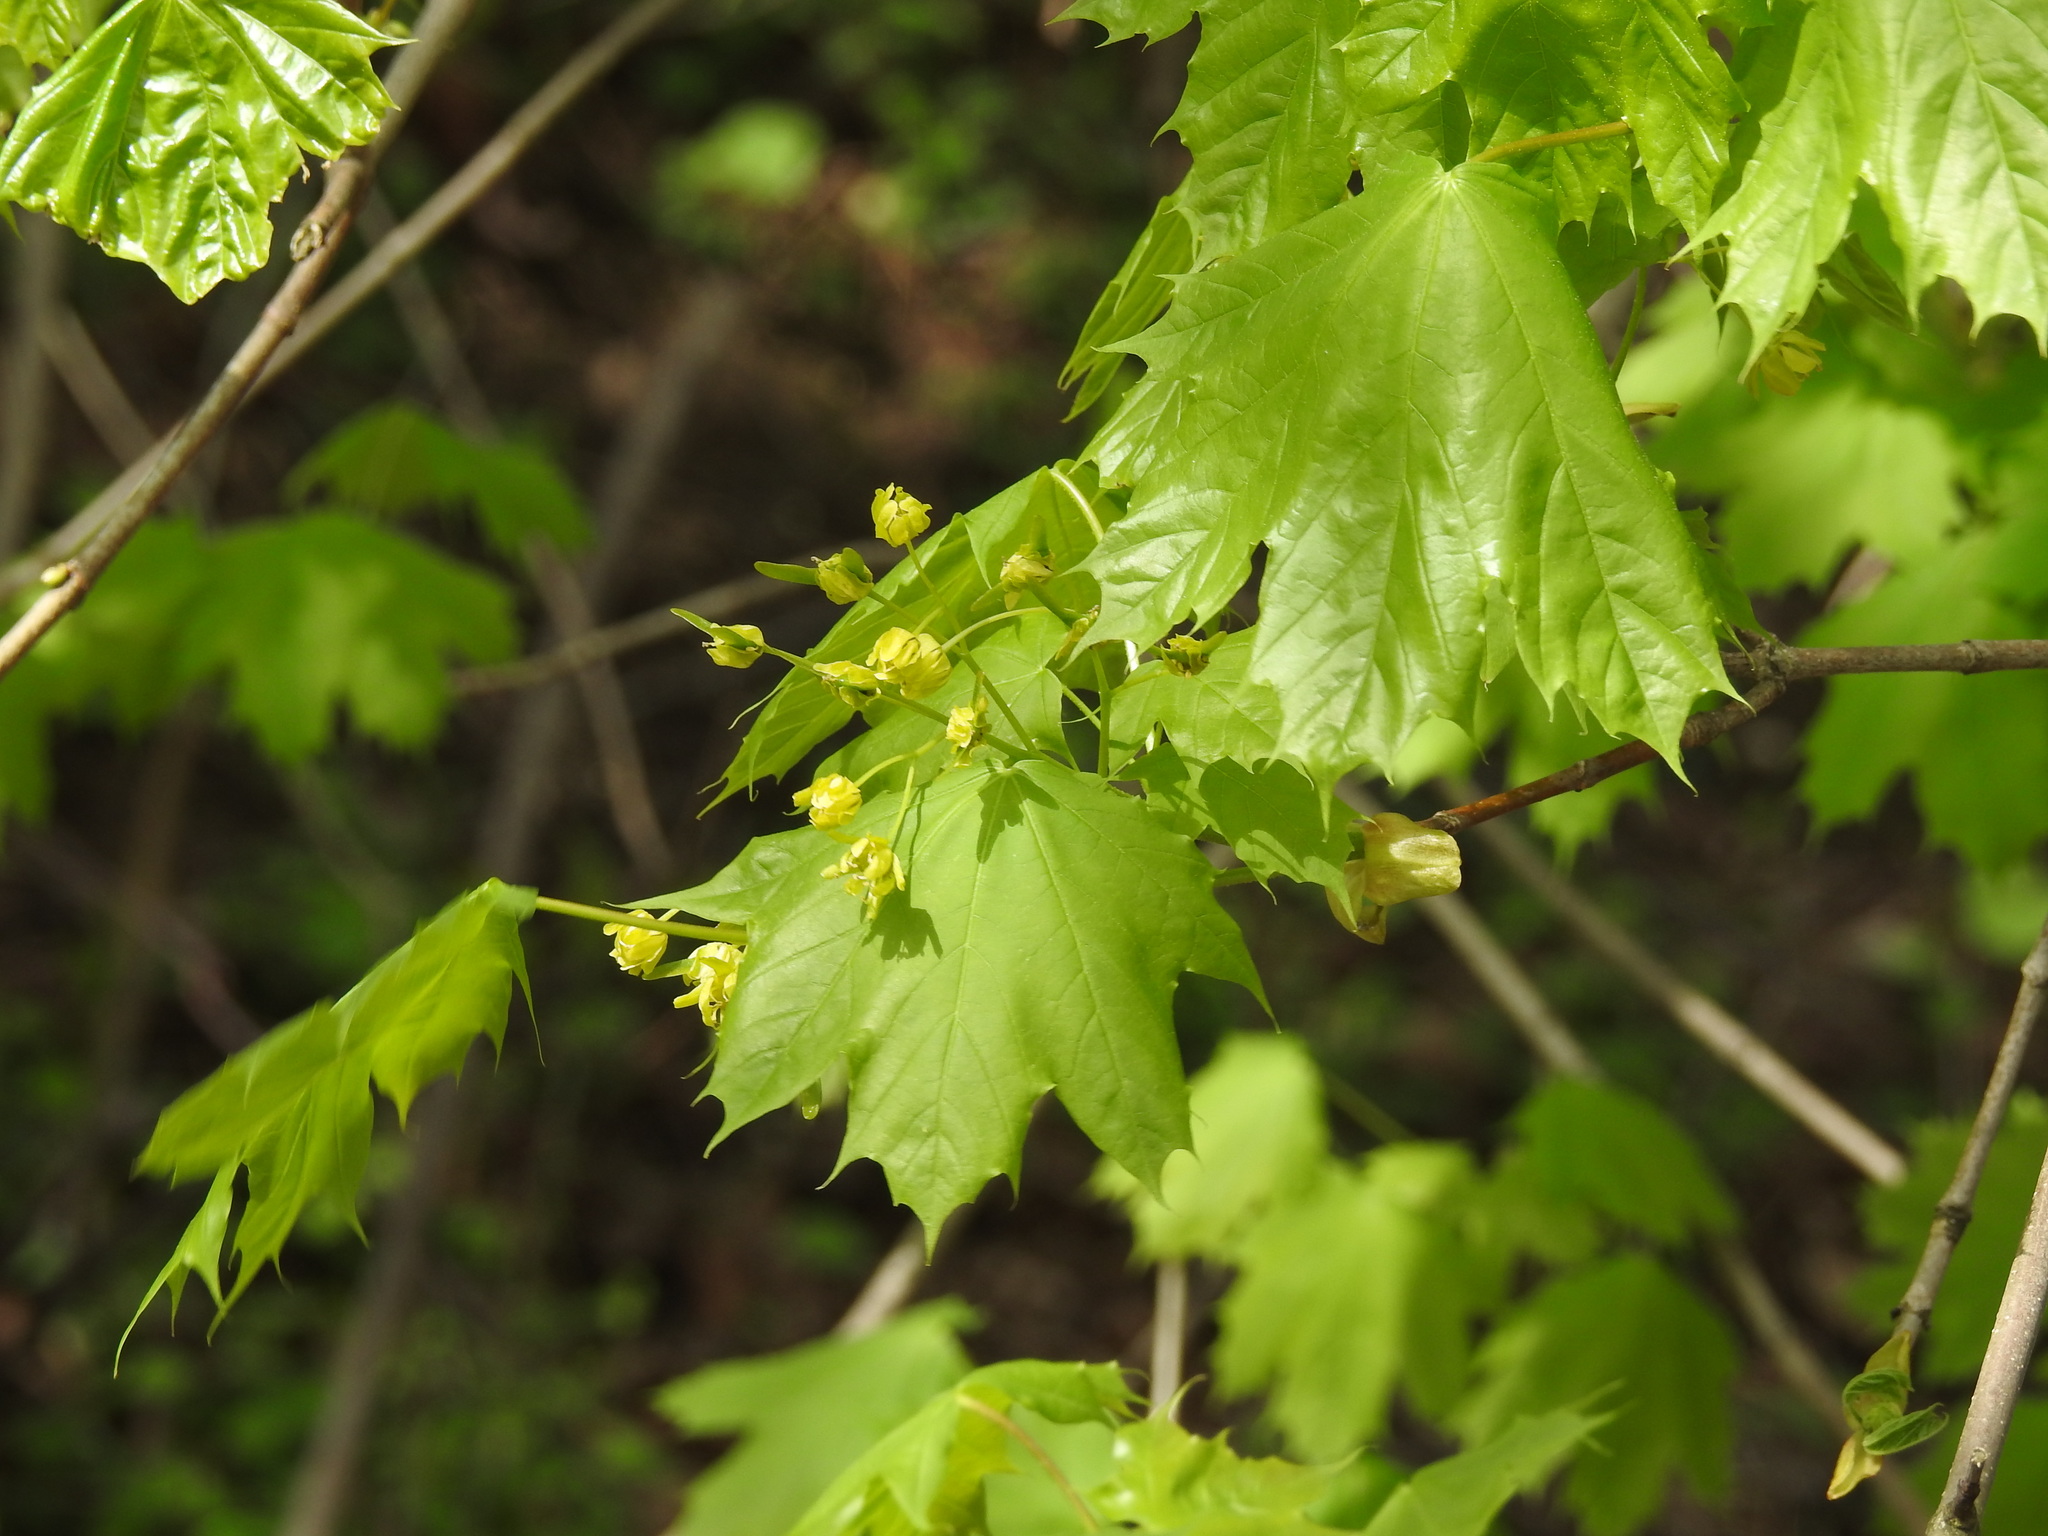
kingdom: Plantae
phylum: Tracheophyta
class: Magnoliopsida
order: Sapindales
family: Sapindaceae
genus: Acer
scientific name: Acer platanoides
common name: Norway maple
